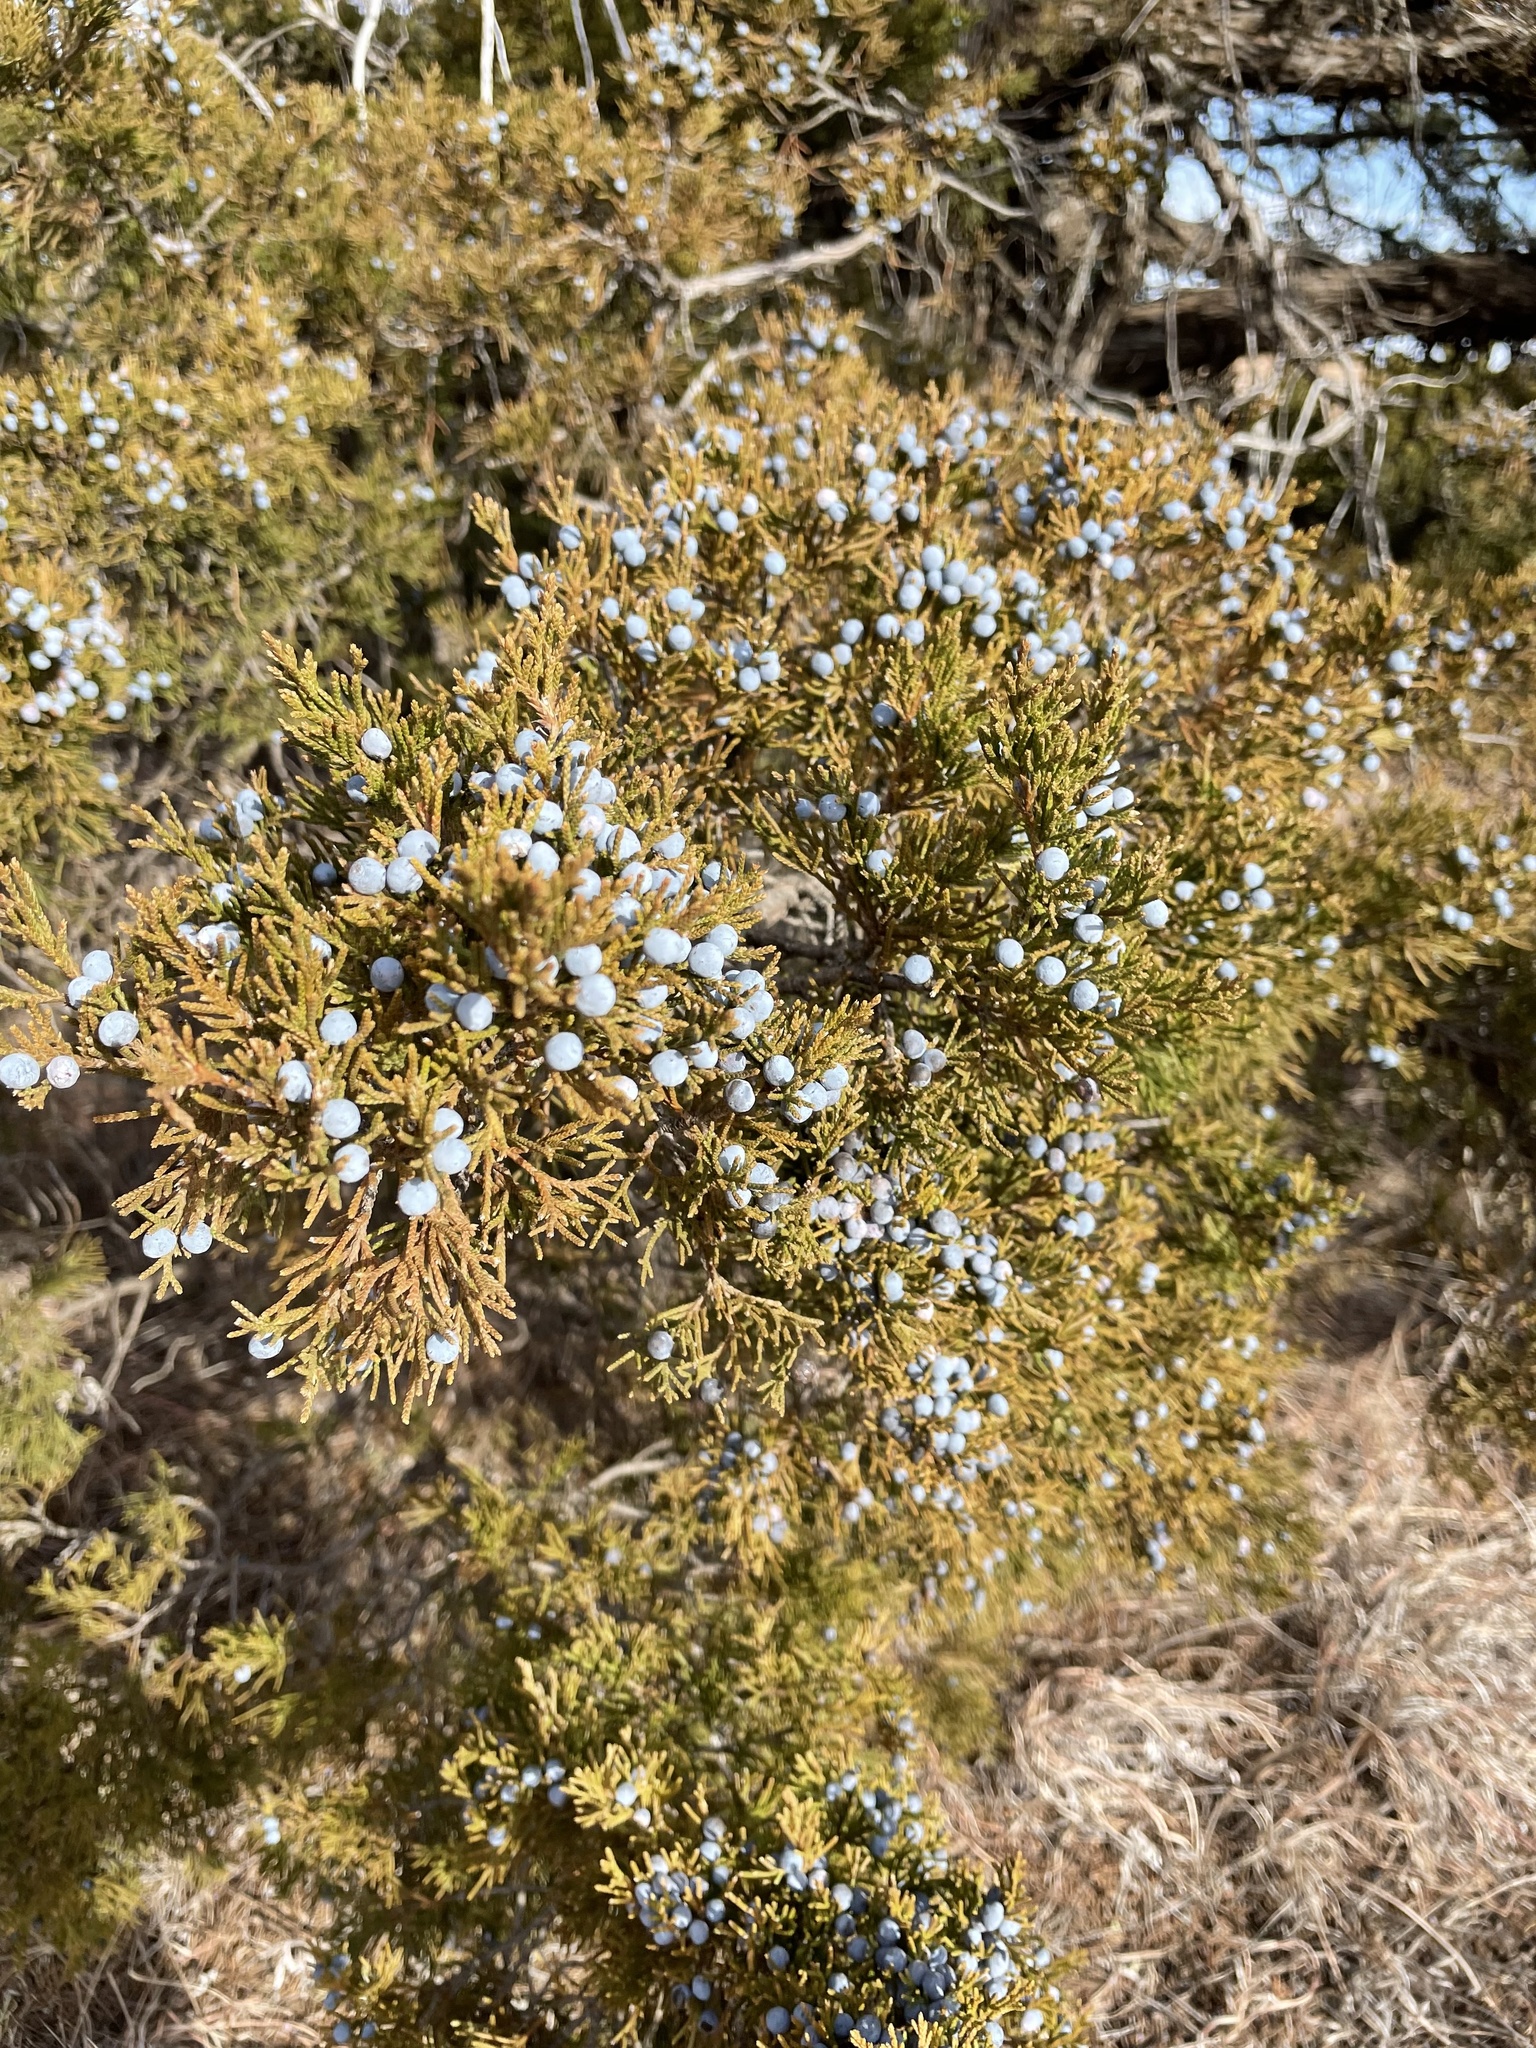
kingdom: Plantae
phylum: Tracheophyta
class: Pinopsida
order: Pinales
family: Cupressaceae
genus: Juniperus
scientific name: Juniperus virginiana
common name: Red juniper
